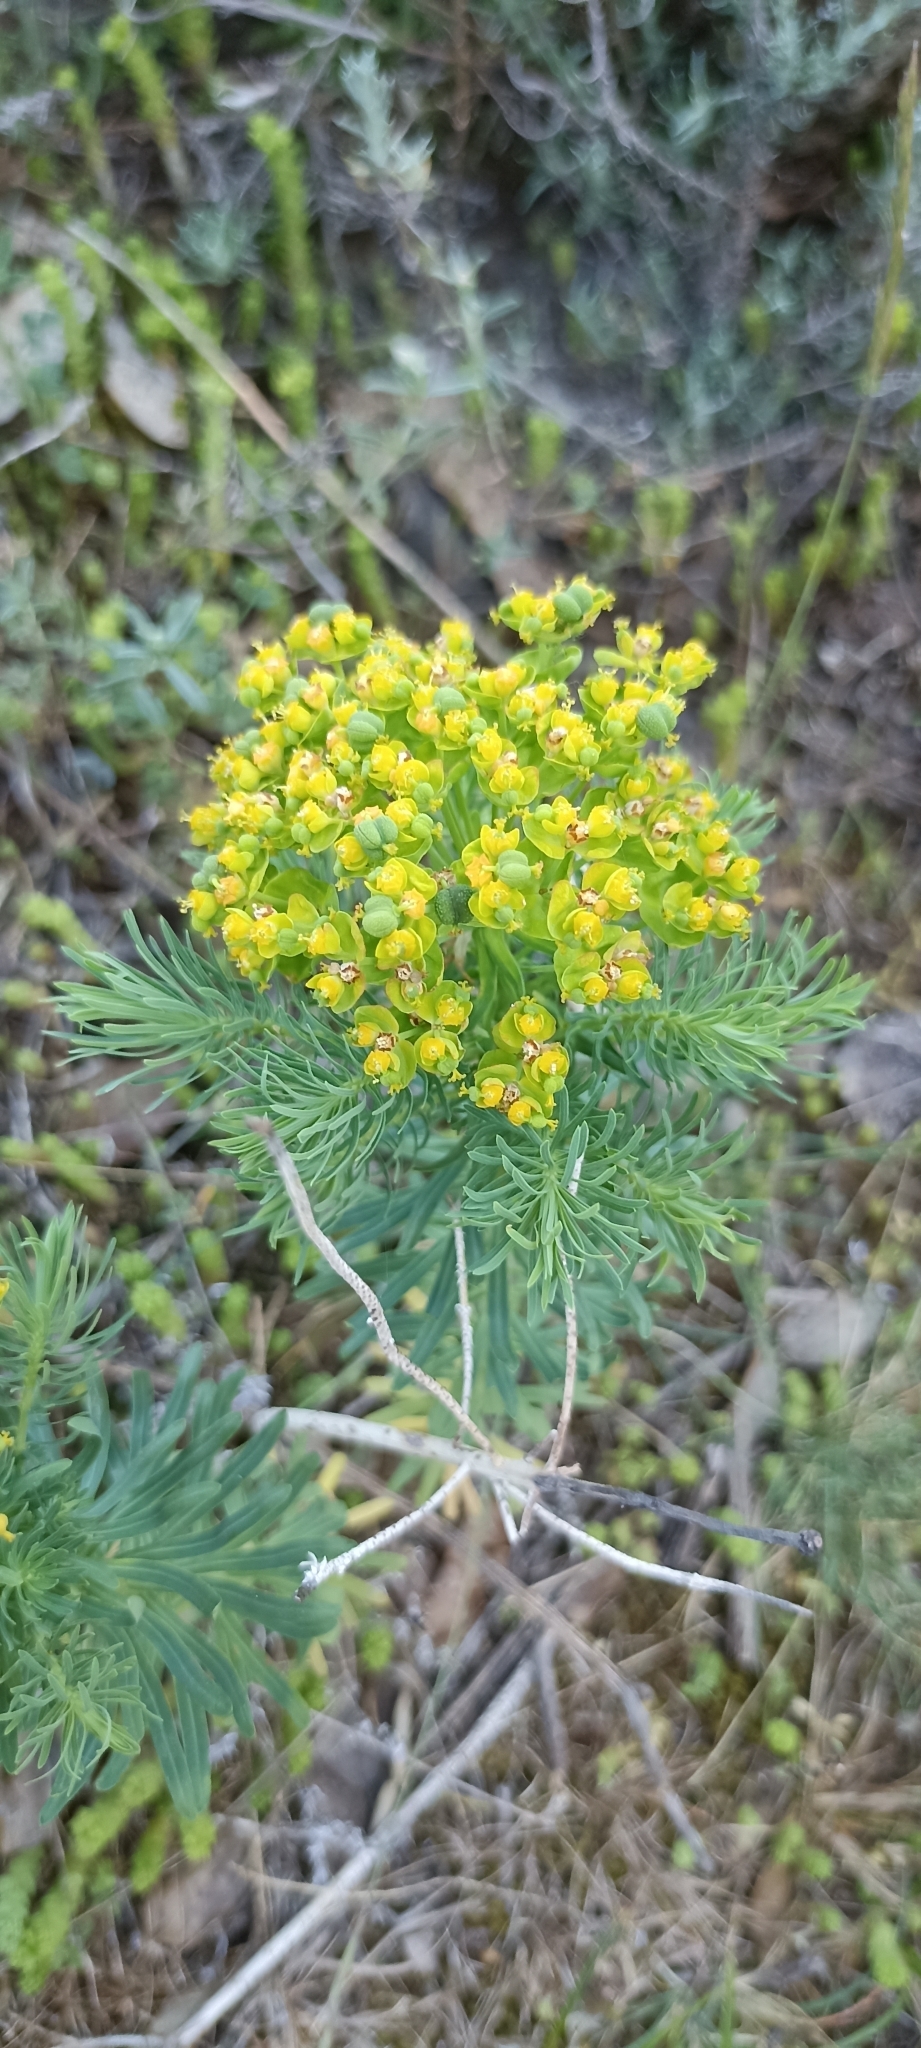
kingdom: Plantae
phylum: Tracheophyta
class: Magnoliopsida
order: Malpighiales
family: Euphorbiaceae
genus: Euphorbia
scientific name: Euphorbia cyparissias
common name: Cypress spurge
